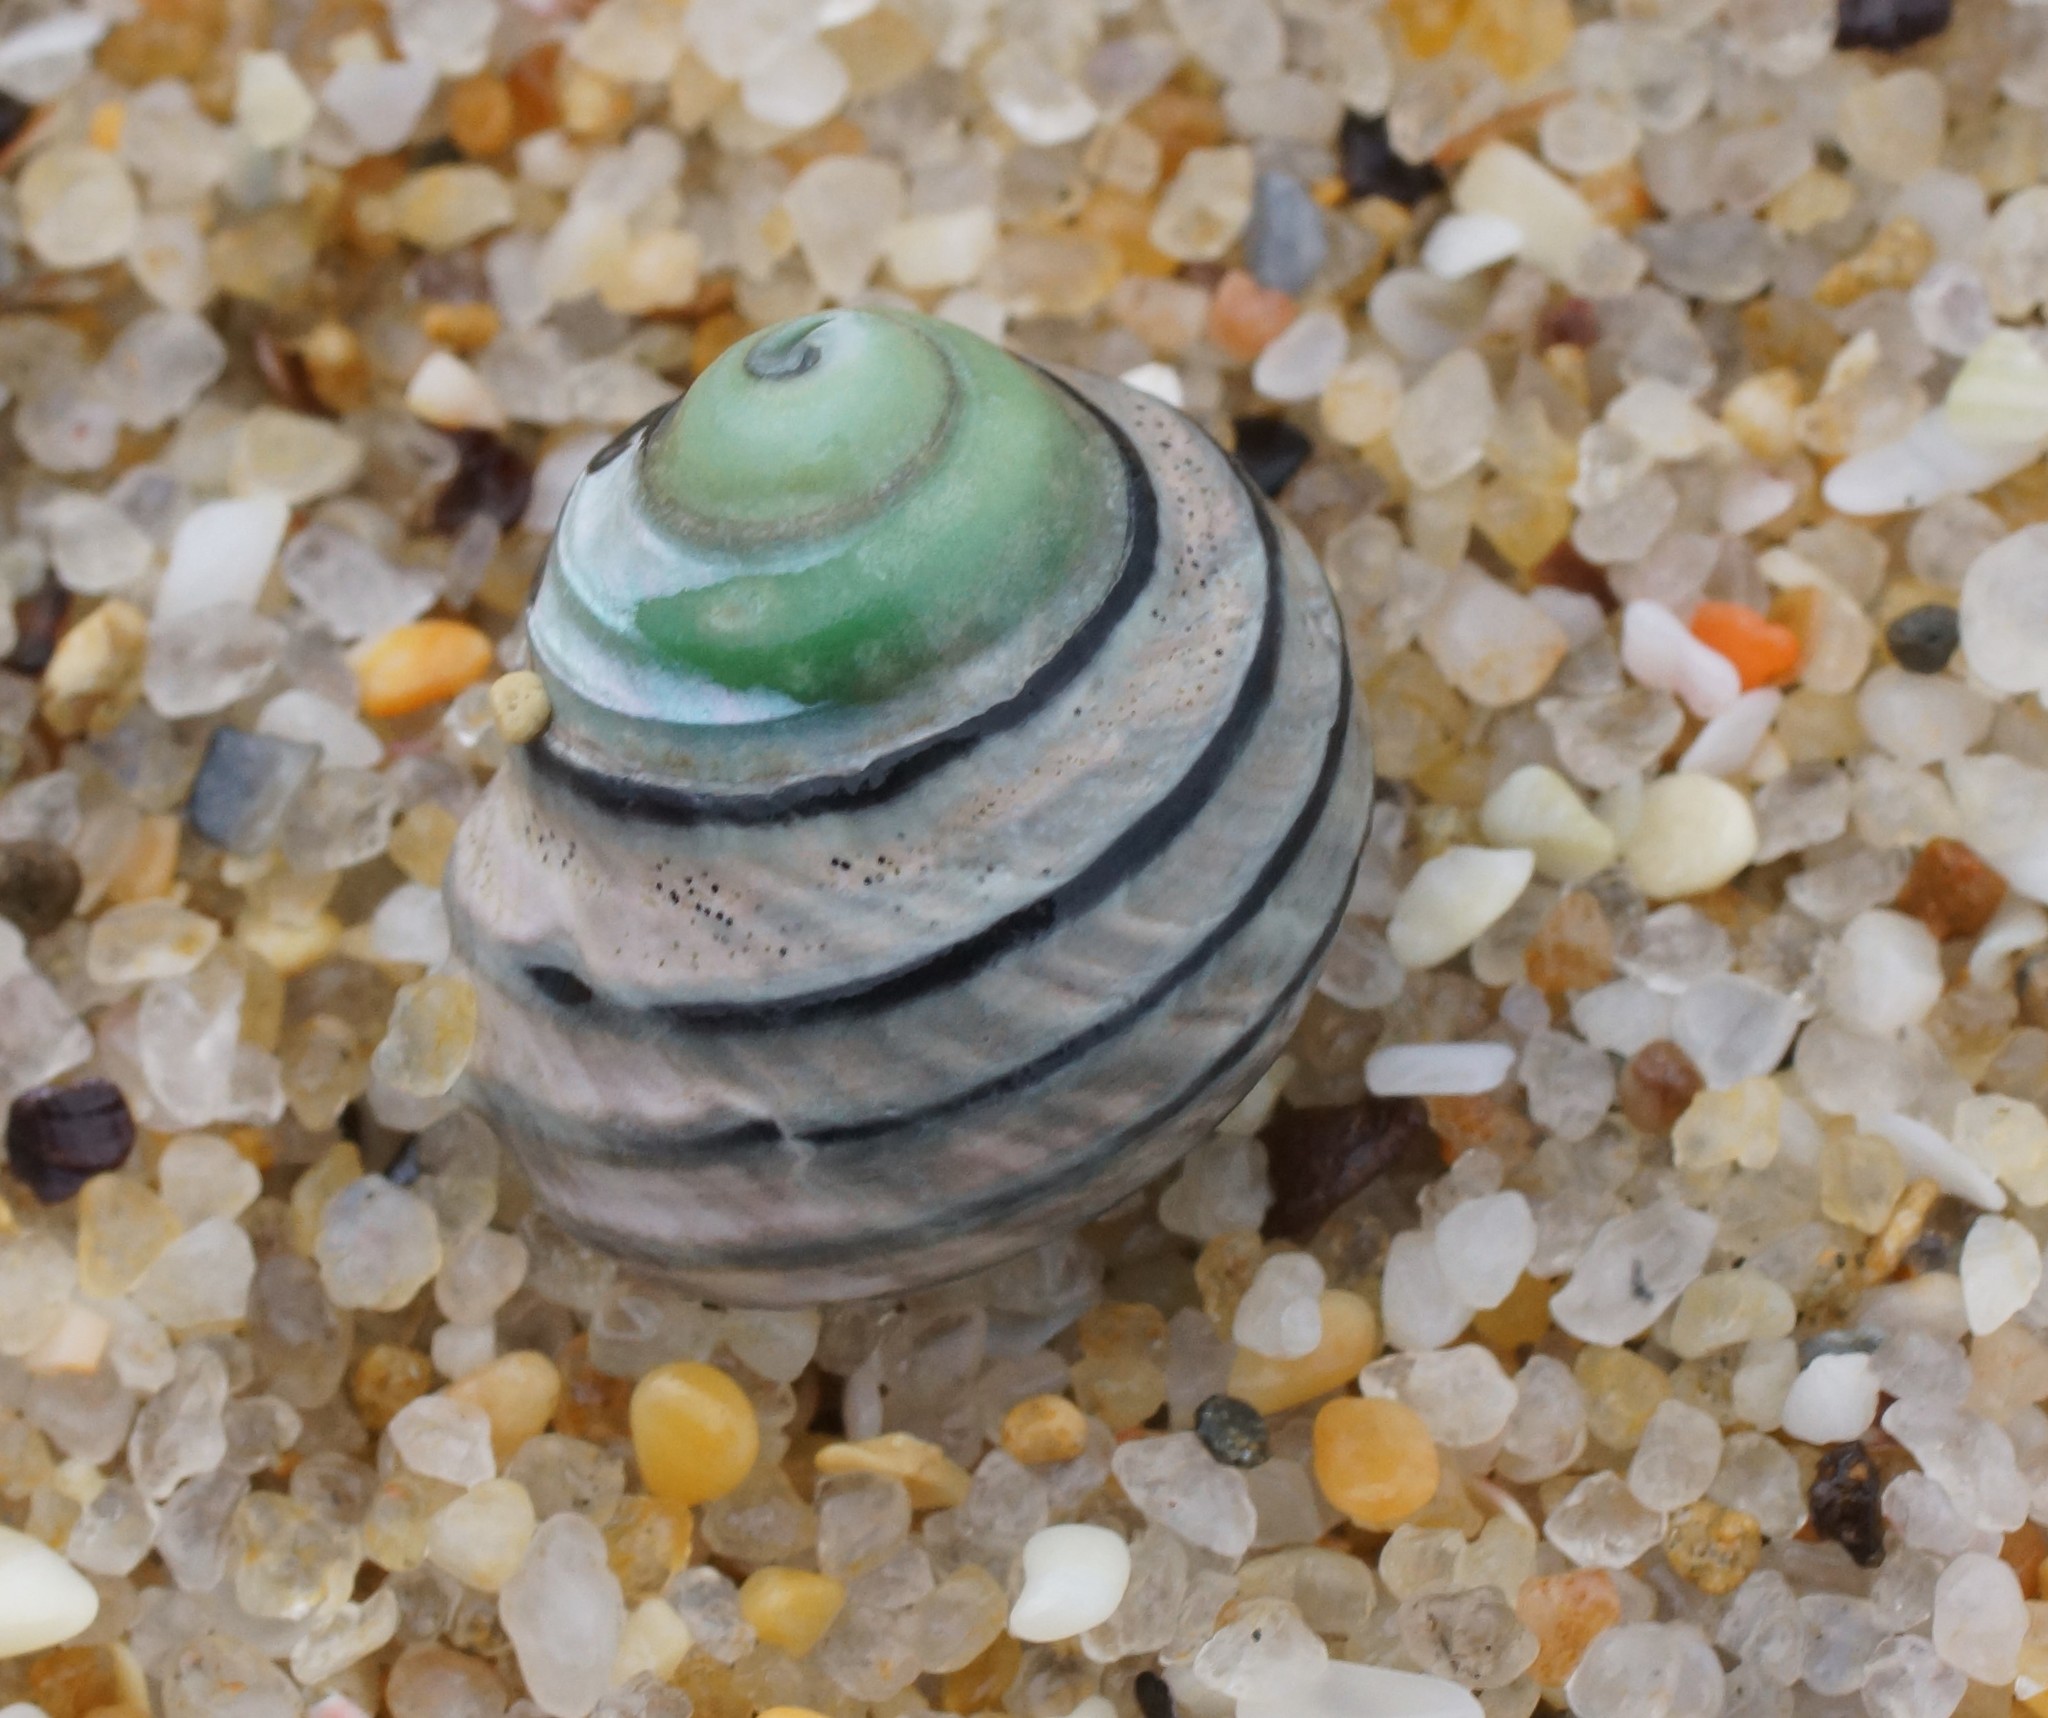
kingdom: Animalia
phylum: Mollusca
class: Gastropoda
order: Trochida
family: Trochidae
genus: Austrocochlea
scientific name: Austrocochlea constricta
